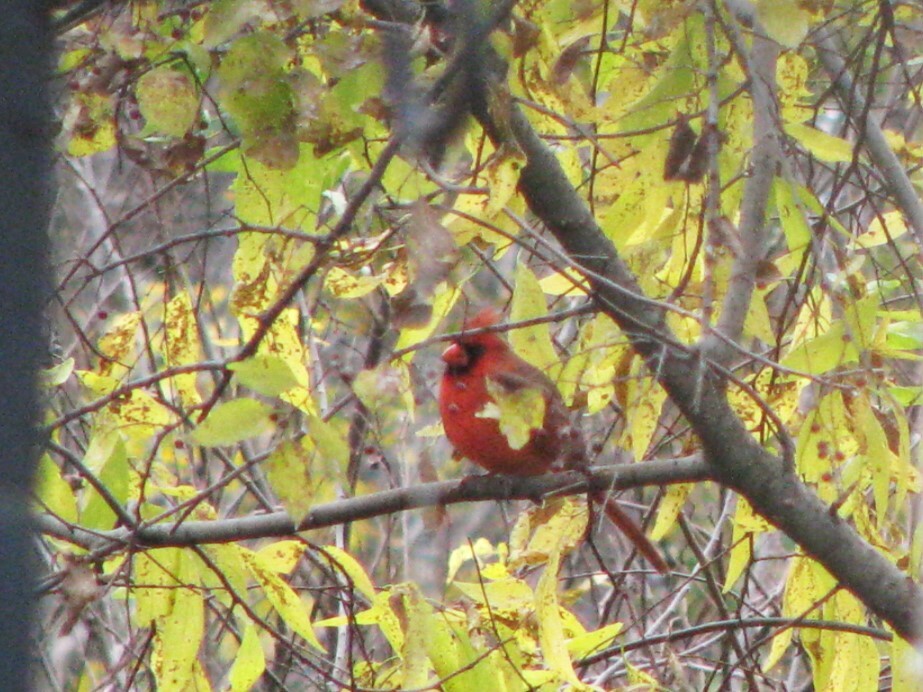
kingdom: Animalia
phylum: Chordata
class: Aves
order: Passeriformes
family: Cardinalidae
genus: Cardinalis
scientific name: Cardinalis cardinalis
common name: Northern cardinal
